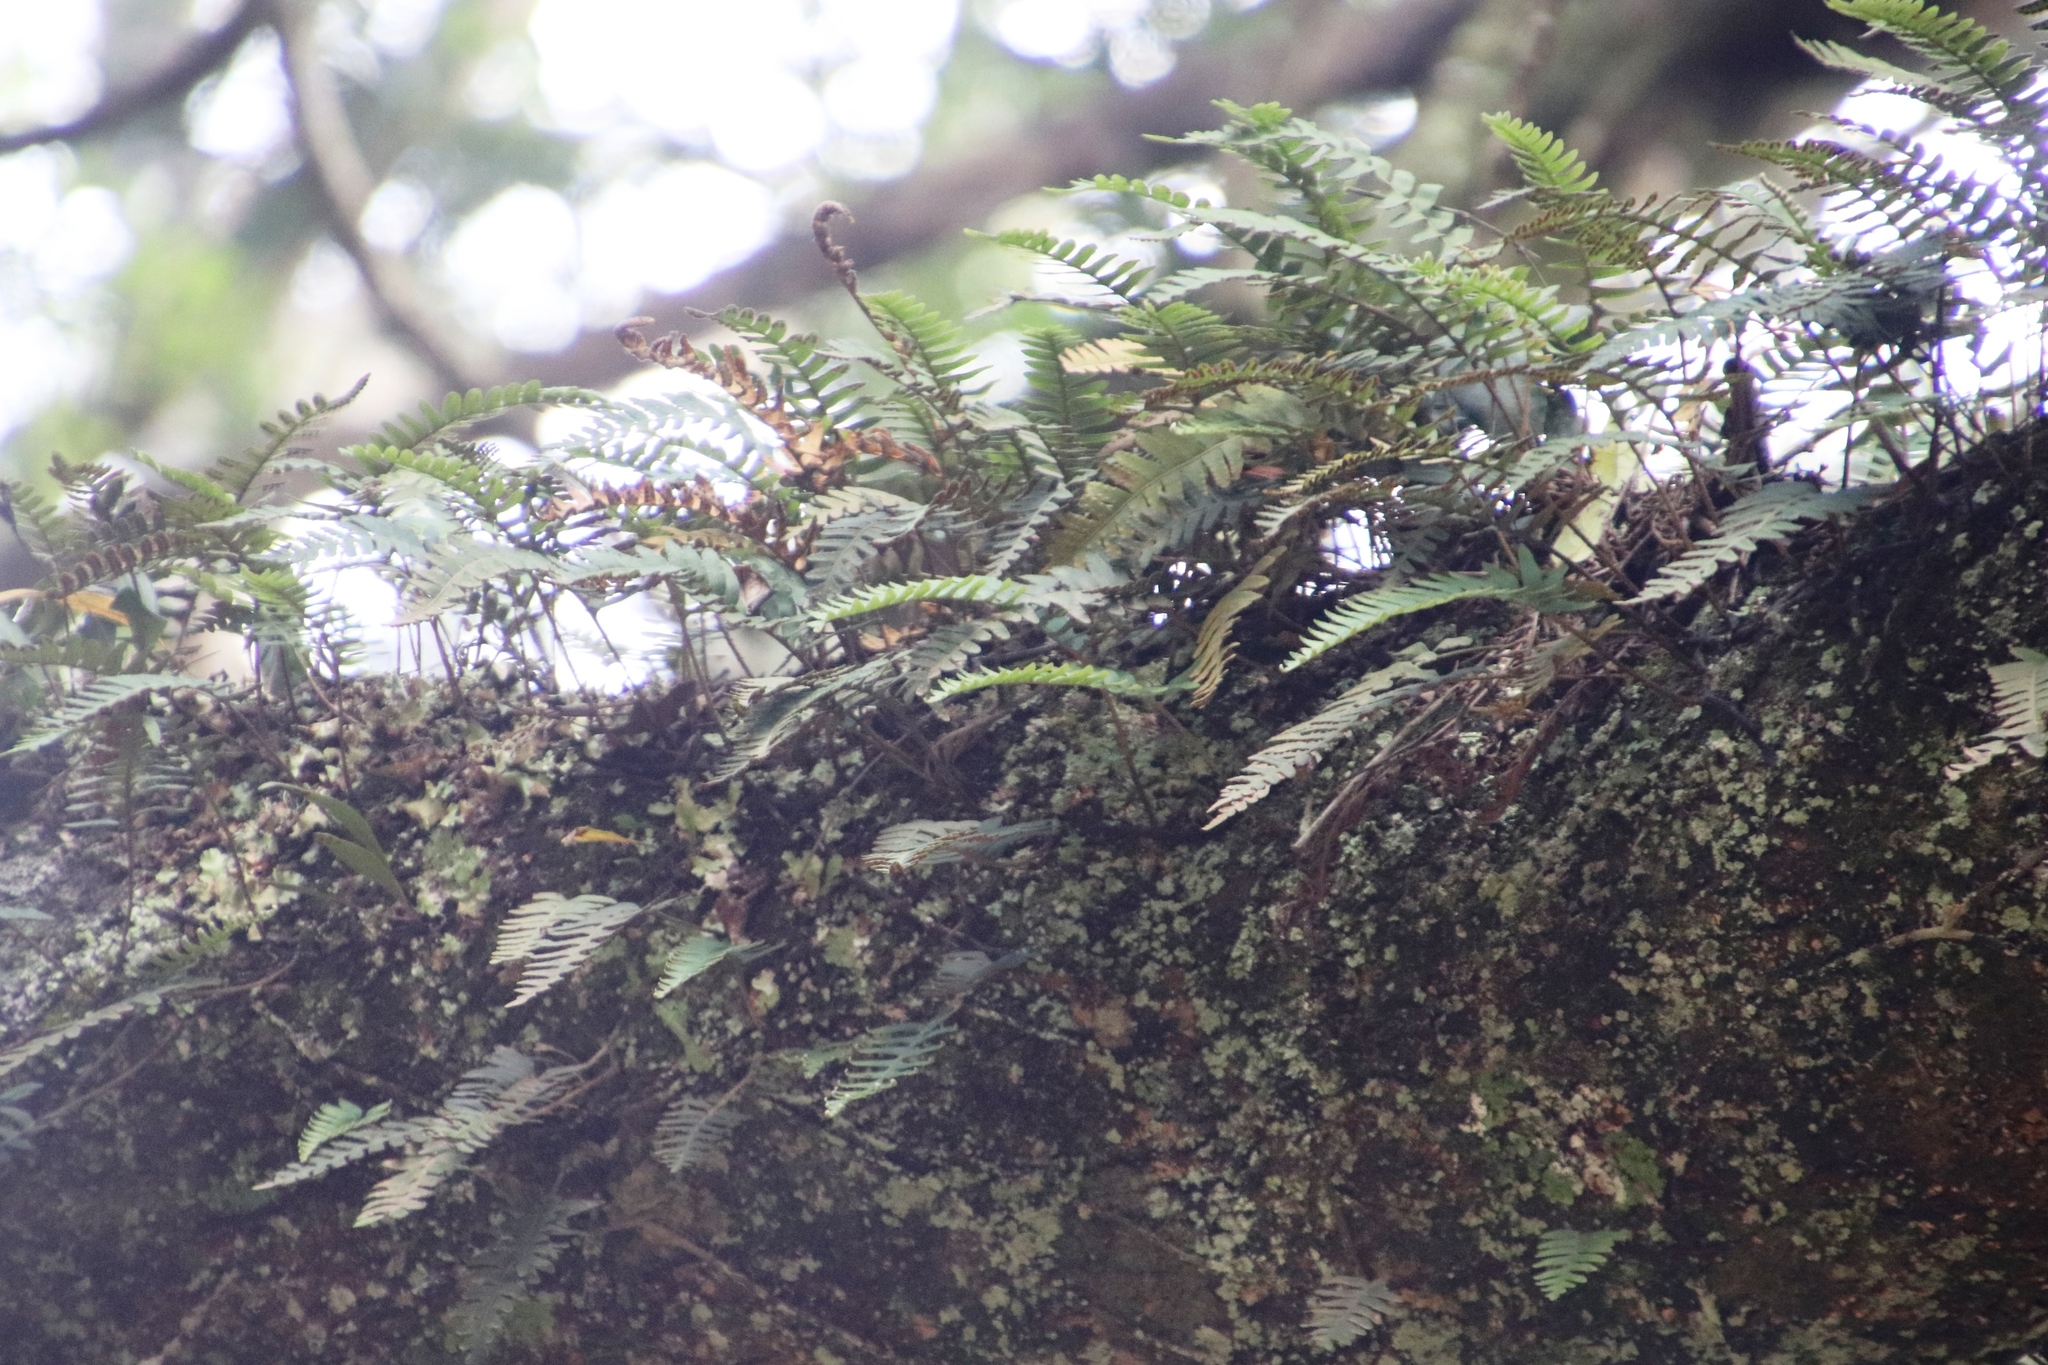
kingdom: Plantae
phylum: Tracheophyta
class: Polypodiopsida
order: Polypodiales
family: Polypodiaceae
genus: Pleopeltis
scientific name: Pleopeltis ecklonii
